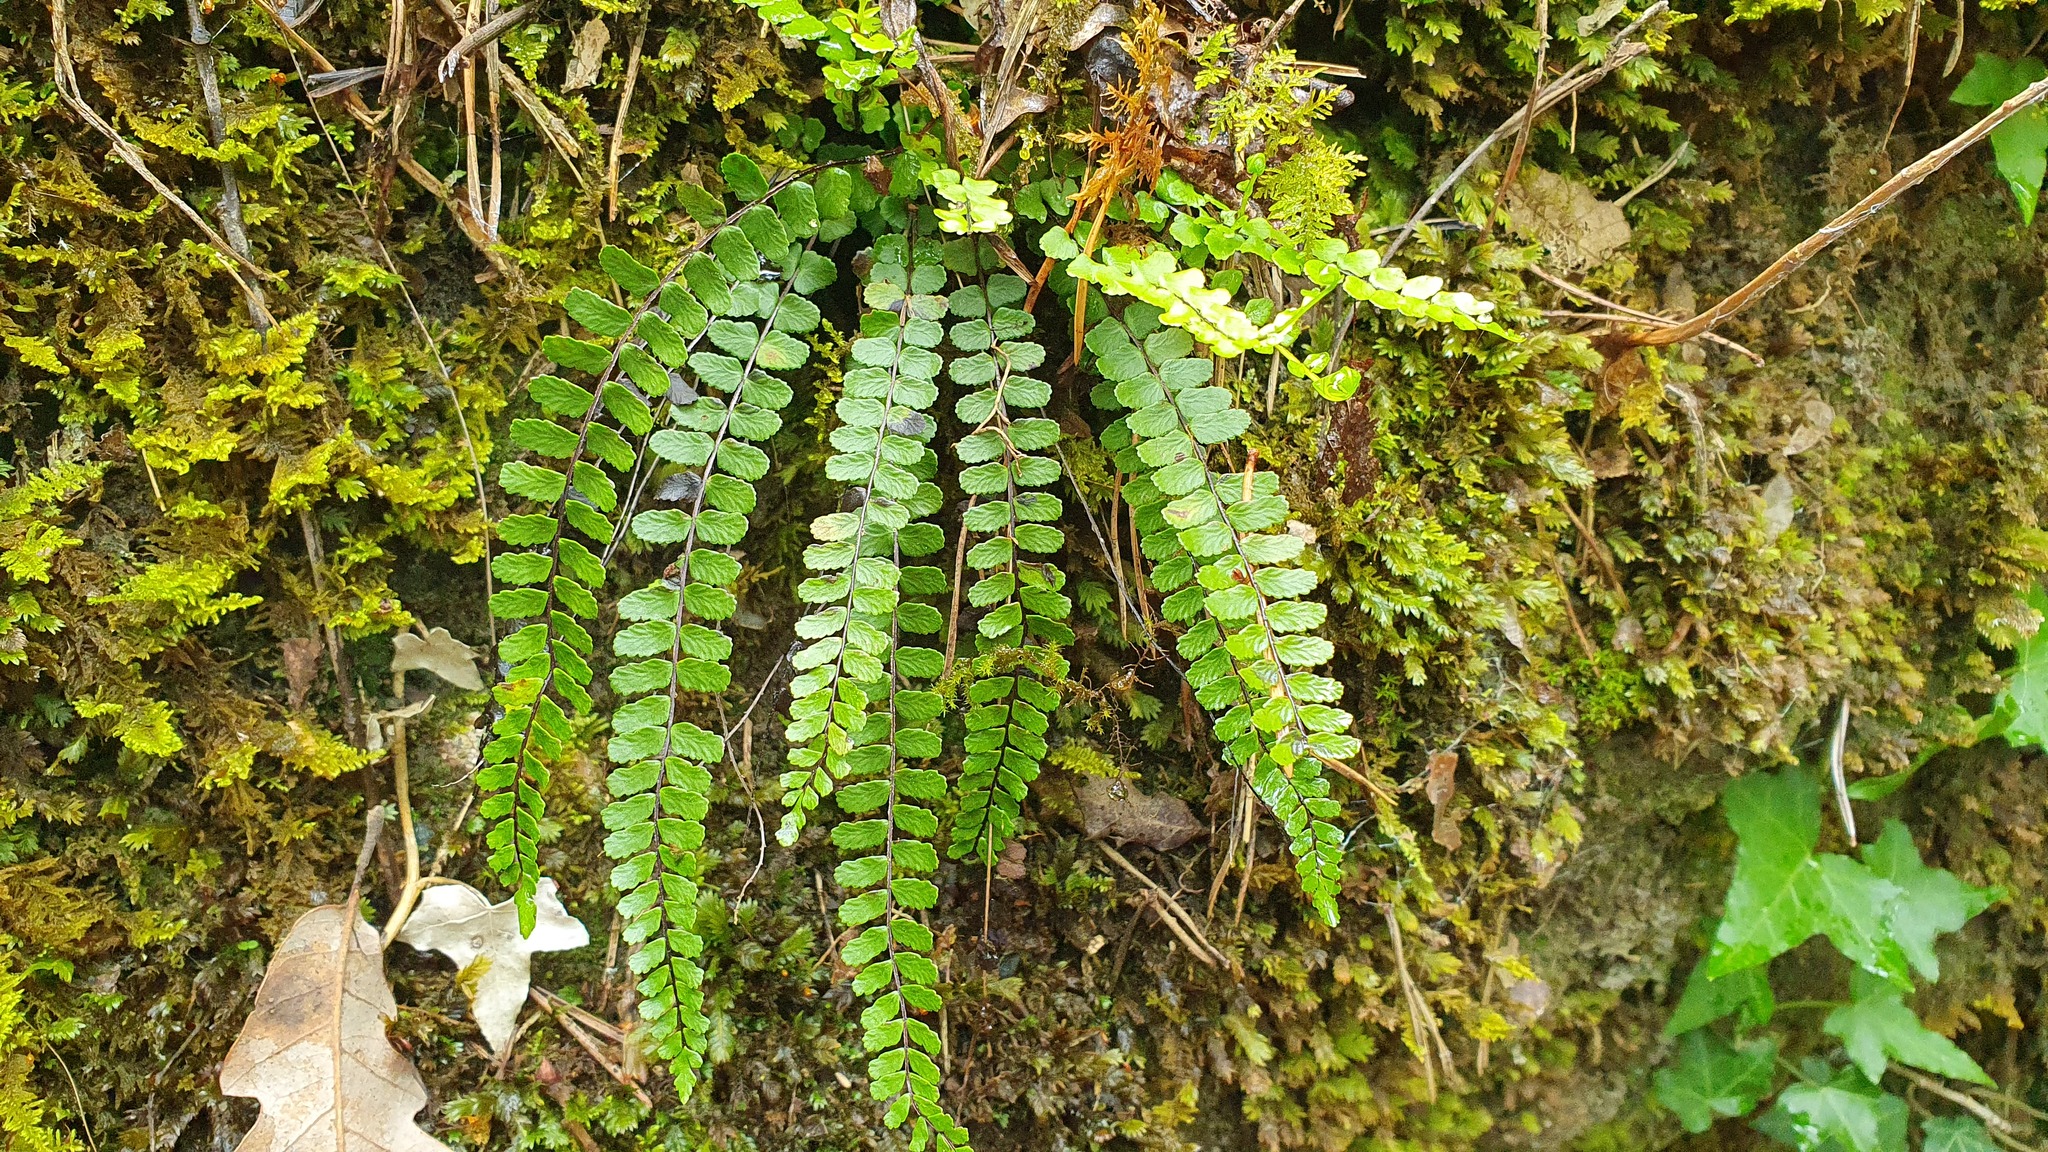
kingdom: Plantae
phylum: Tracheophyta
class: Polypodiopsida
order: Polypodiales
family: Aspleniaceae
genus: Asplenium
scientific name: Asplenium trichomanes
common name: Maidenhair spleenwort
